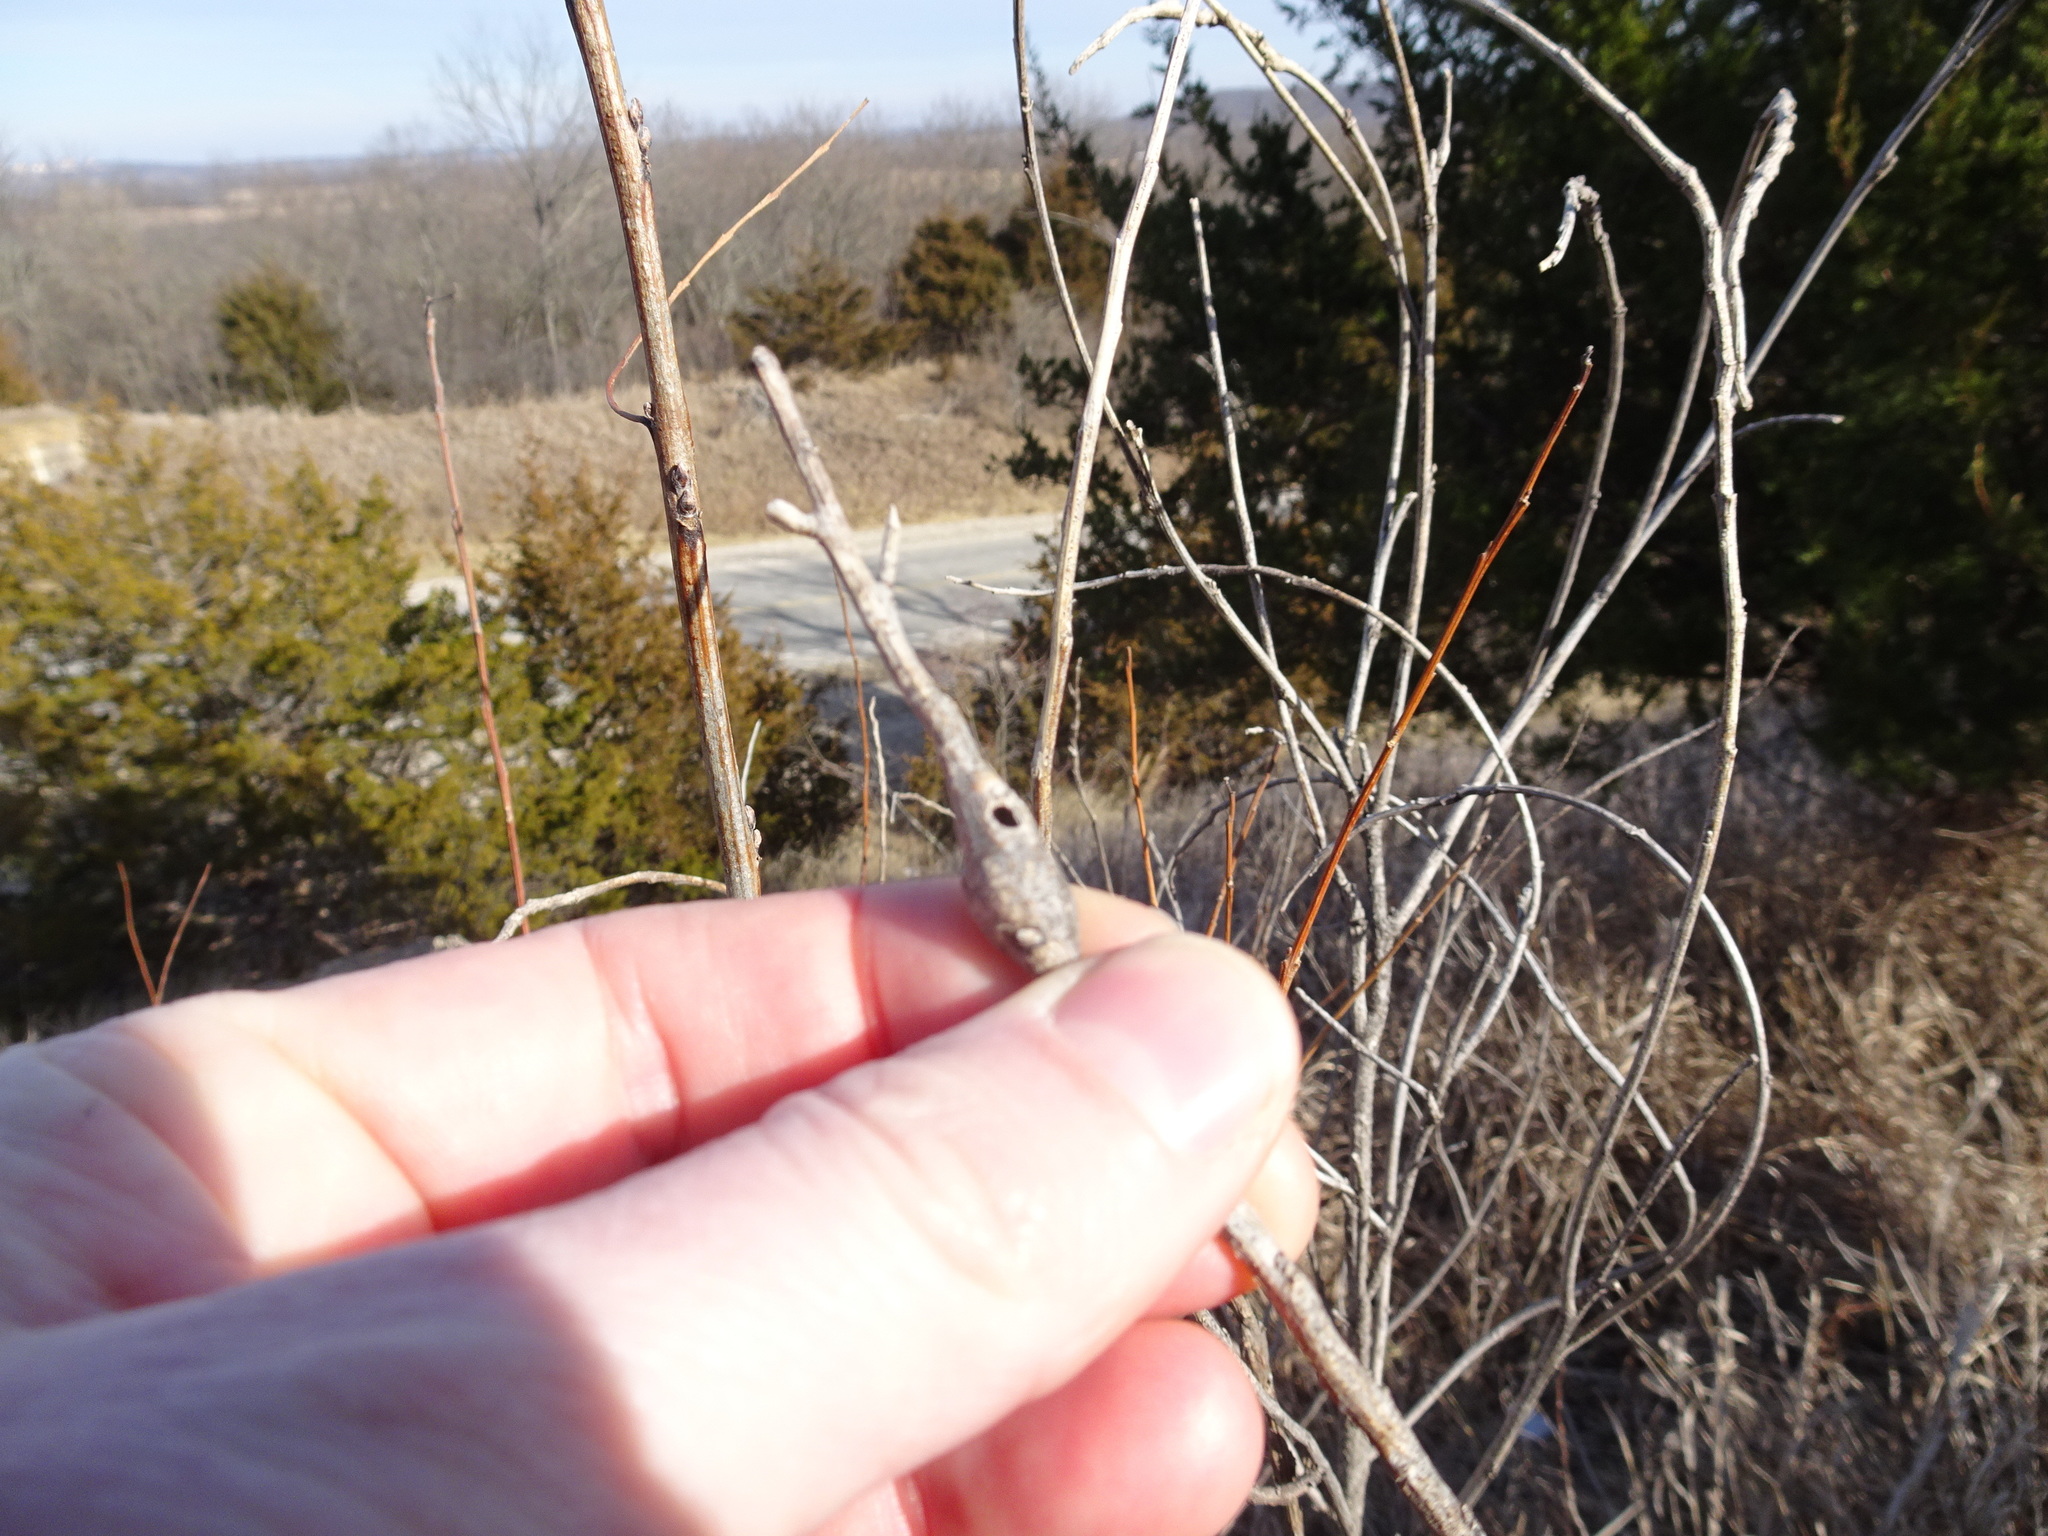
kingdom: Animalia
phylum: Arthropoda
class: Insecta
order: Lepidoptera
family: Cosmopterigidae
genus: Walshia
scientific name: Walshia amorphella
